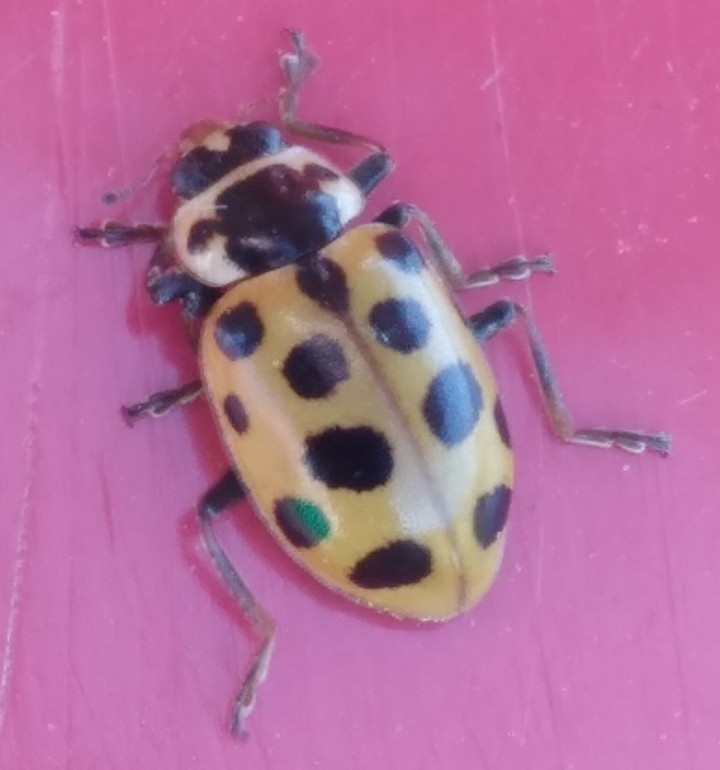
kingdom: Animalia
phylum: Arthropoda
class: Insecta
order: Coleoptera
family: Coccinellidae
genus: Hippodamia
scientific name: Hippodamia tredecimpunctata
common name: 13-spot ladybird
